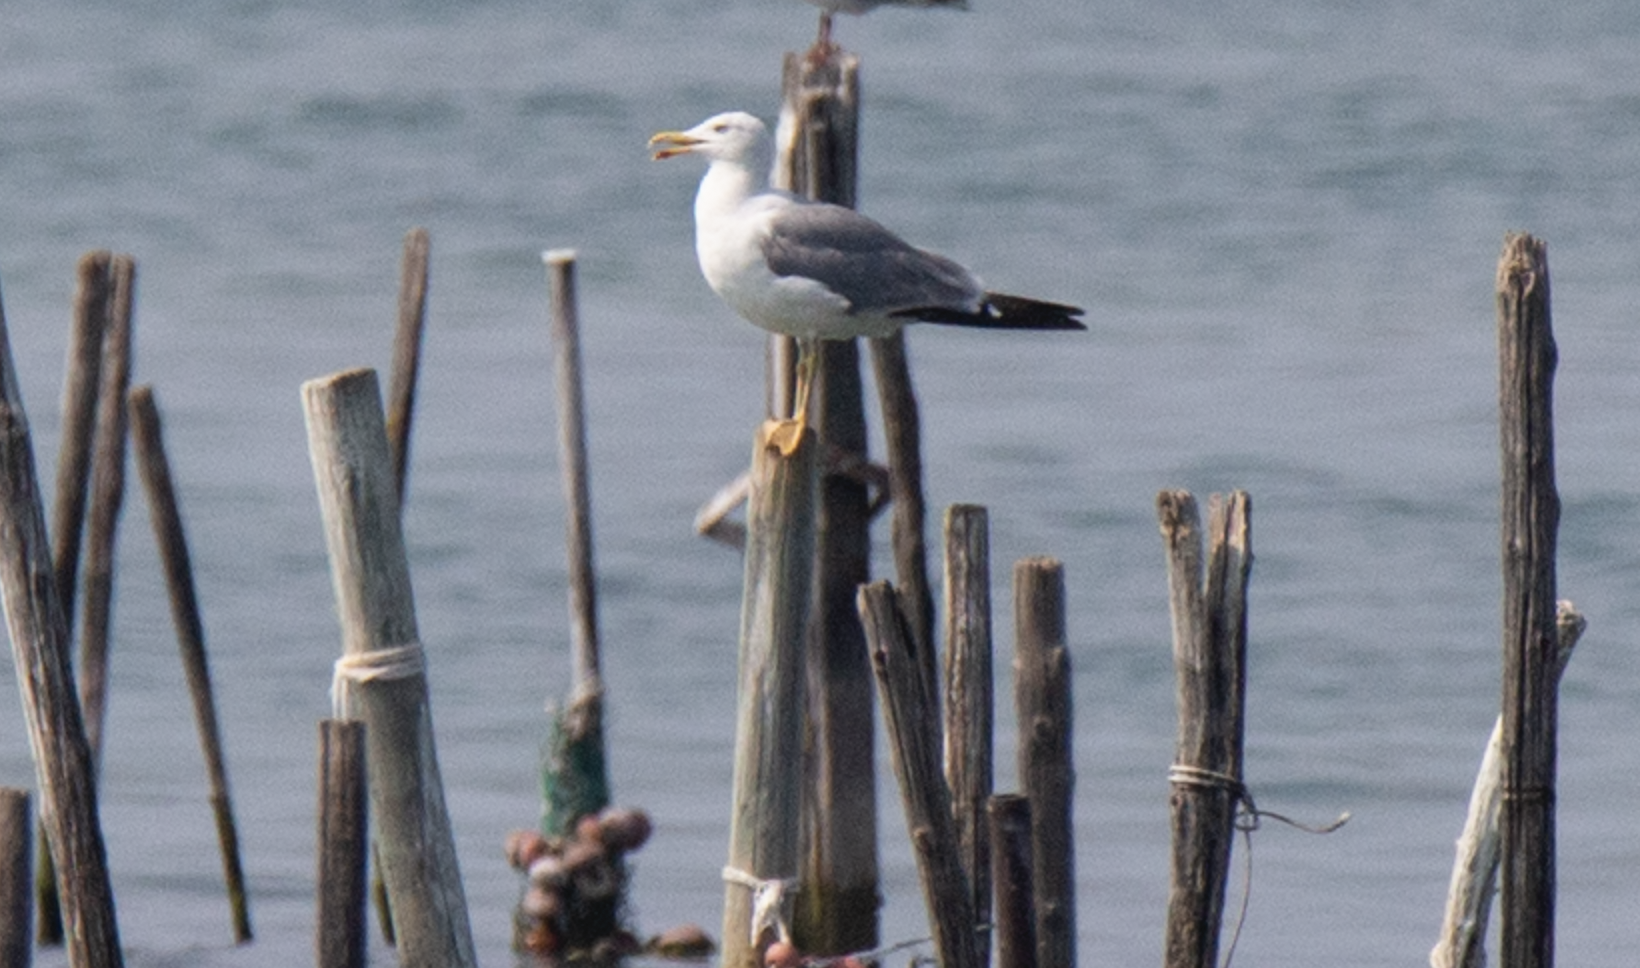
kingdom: Animalia
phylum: Chordata
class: Aves
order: Charadriiformes
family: Laridae
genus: Larus
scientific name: Larus michahellis
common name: Yellow-legged gull
